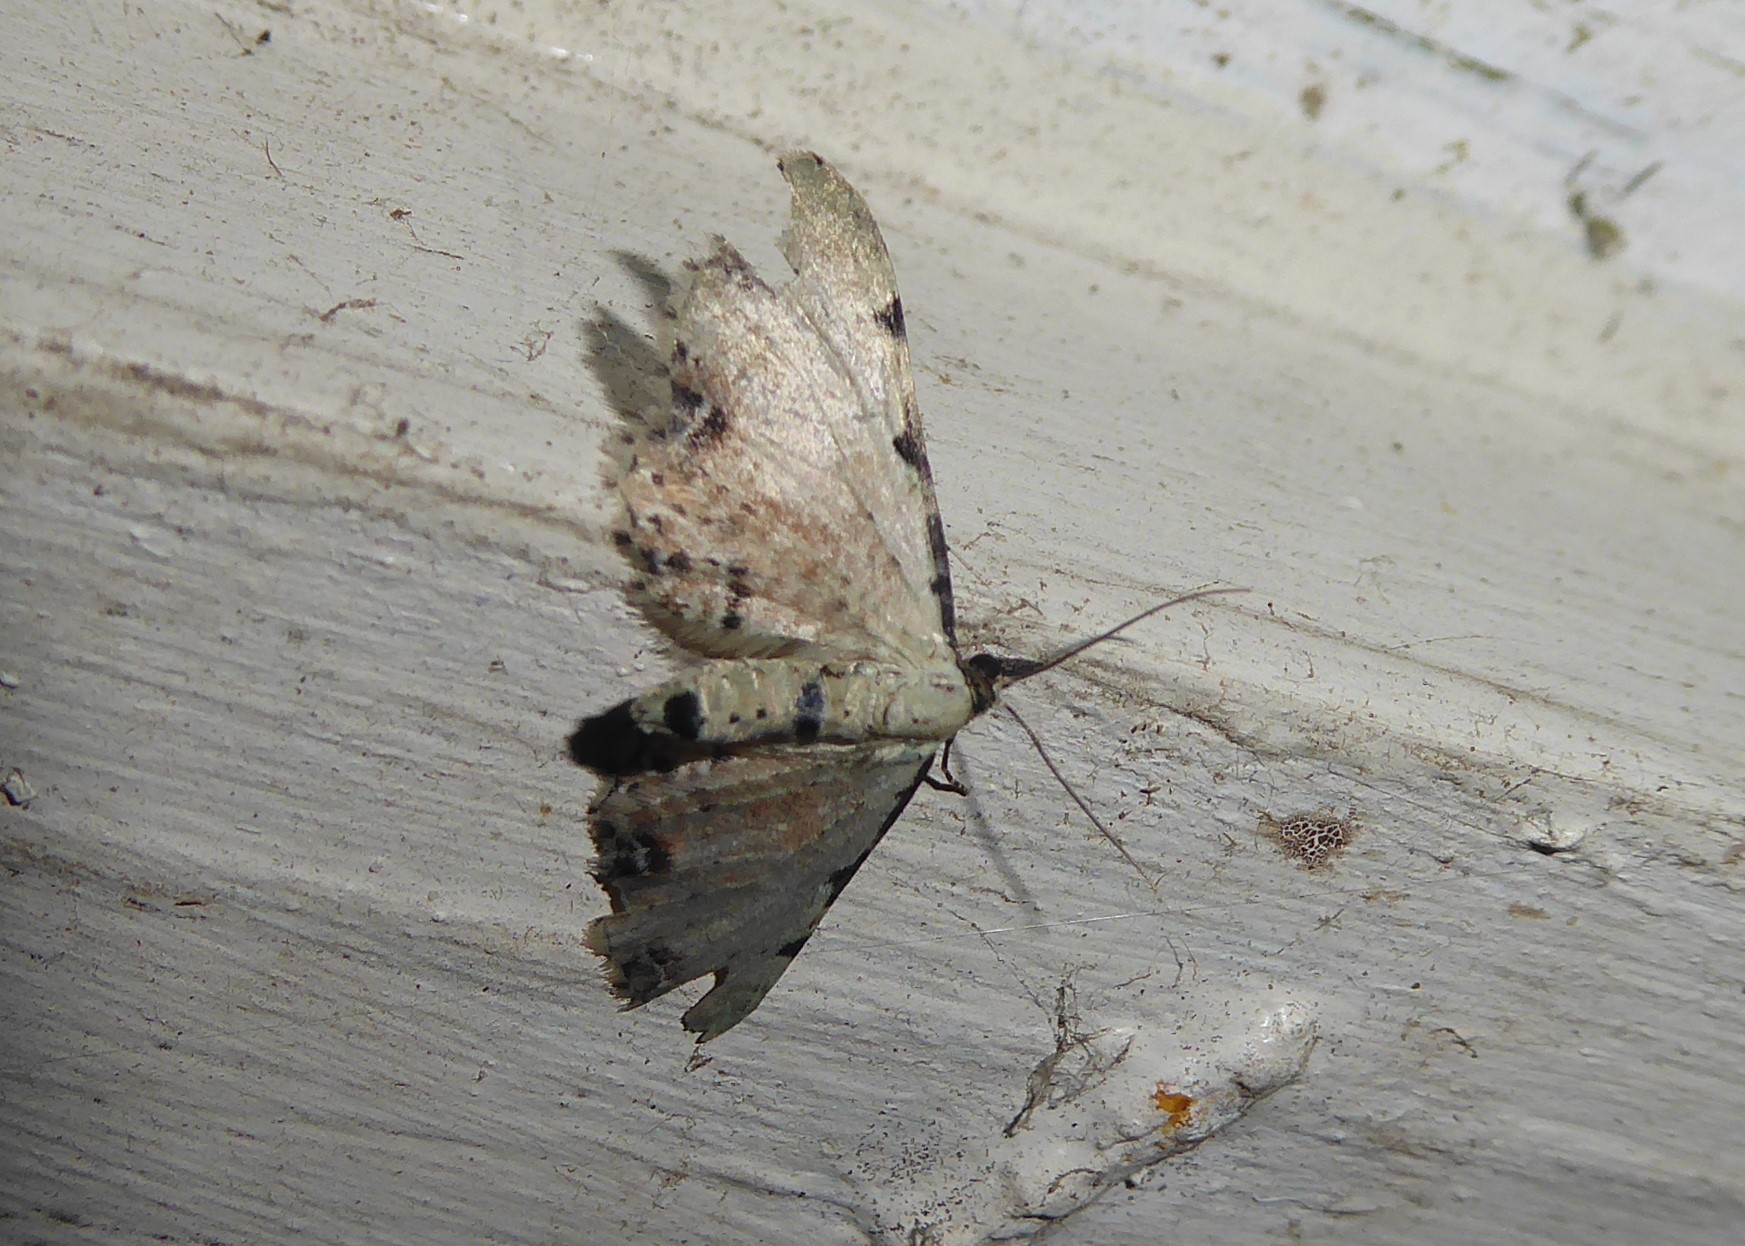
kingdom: Animalia
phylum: Arthropoda
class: Insecta
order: Lepidoptera
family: Geometridae
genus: Pasiphila
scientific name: Pasiphila fumipalpata
